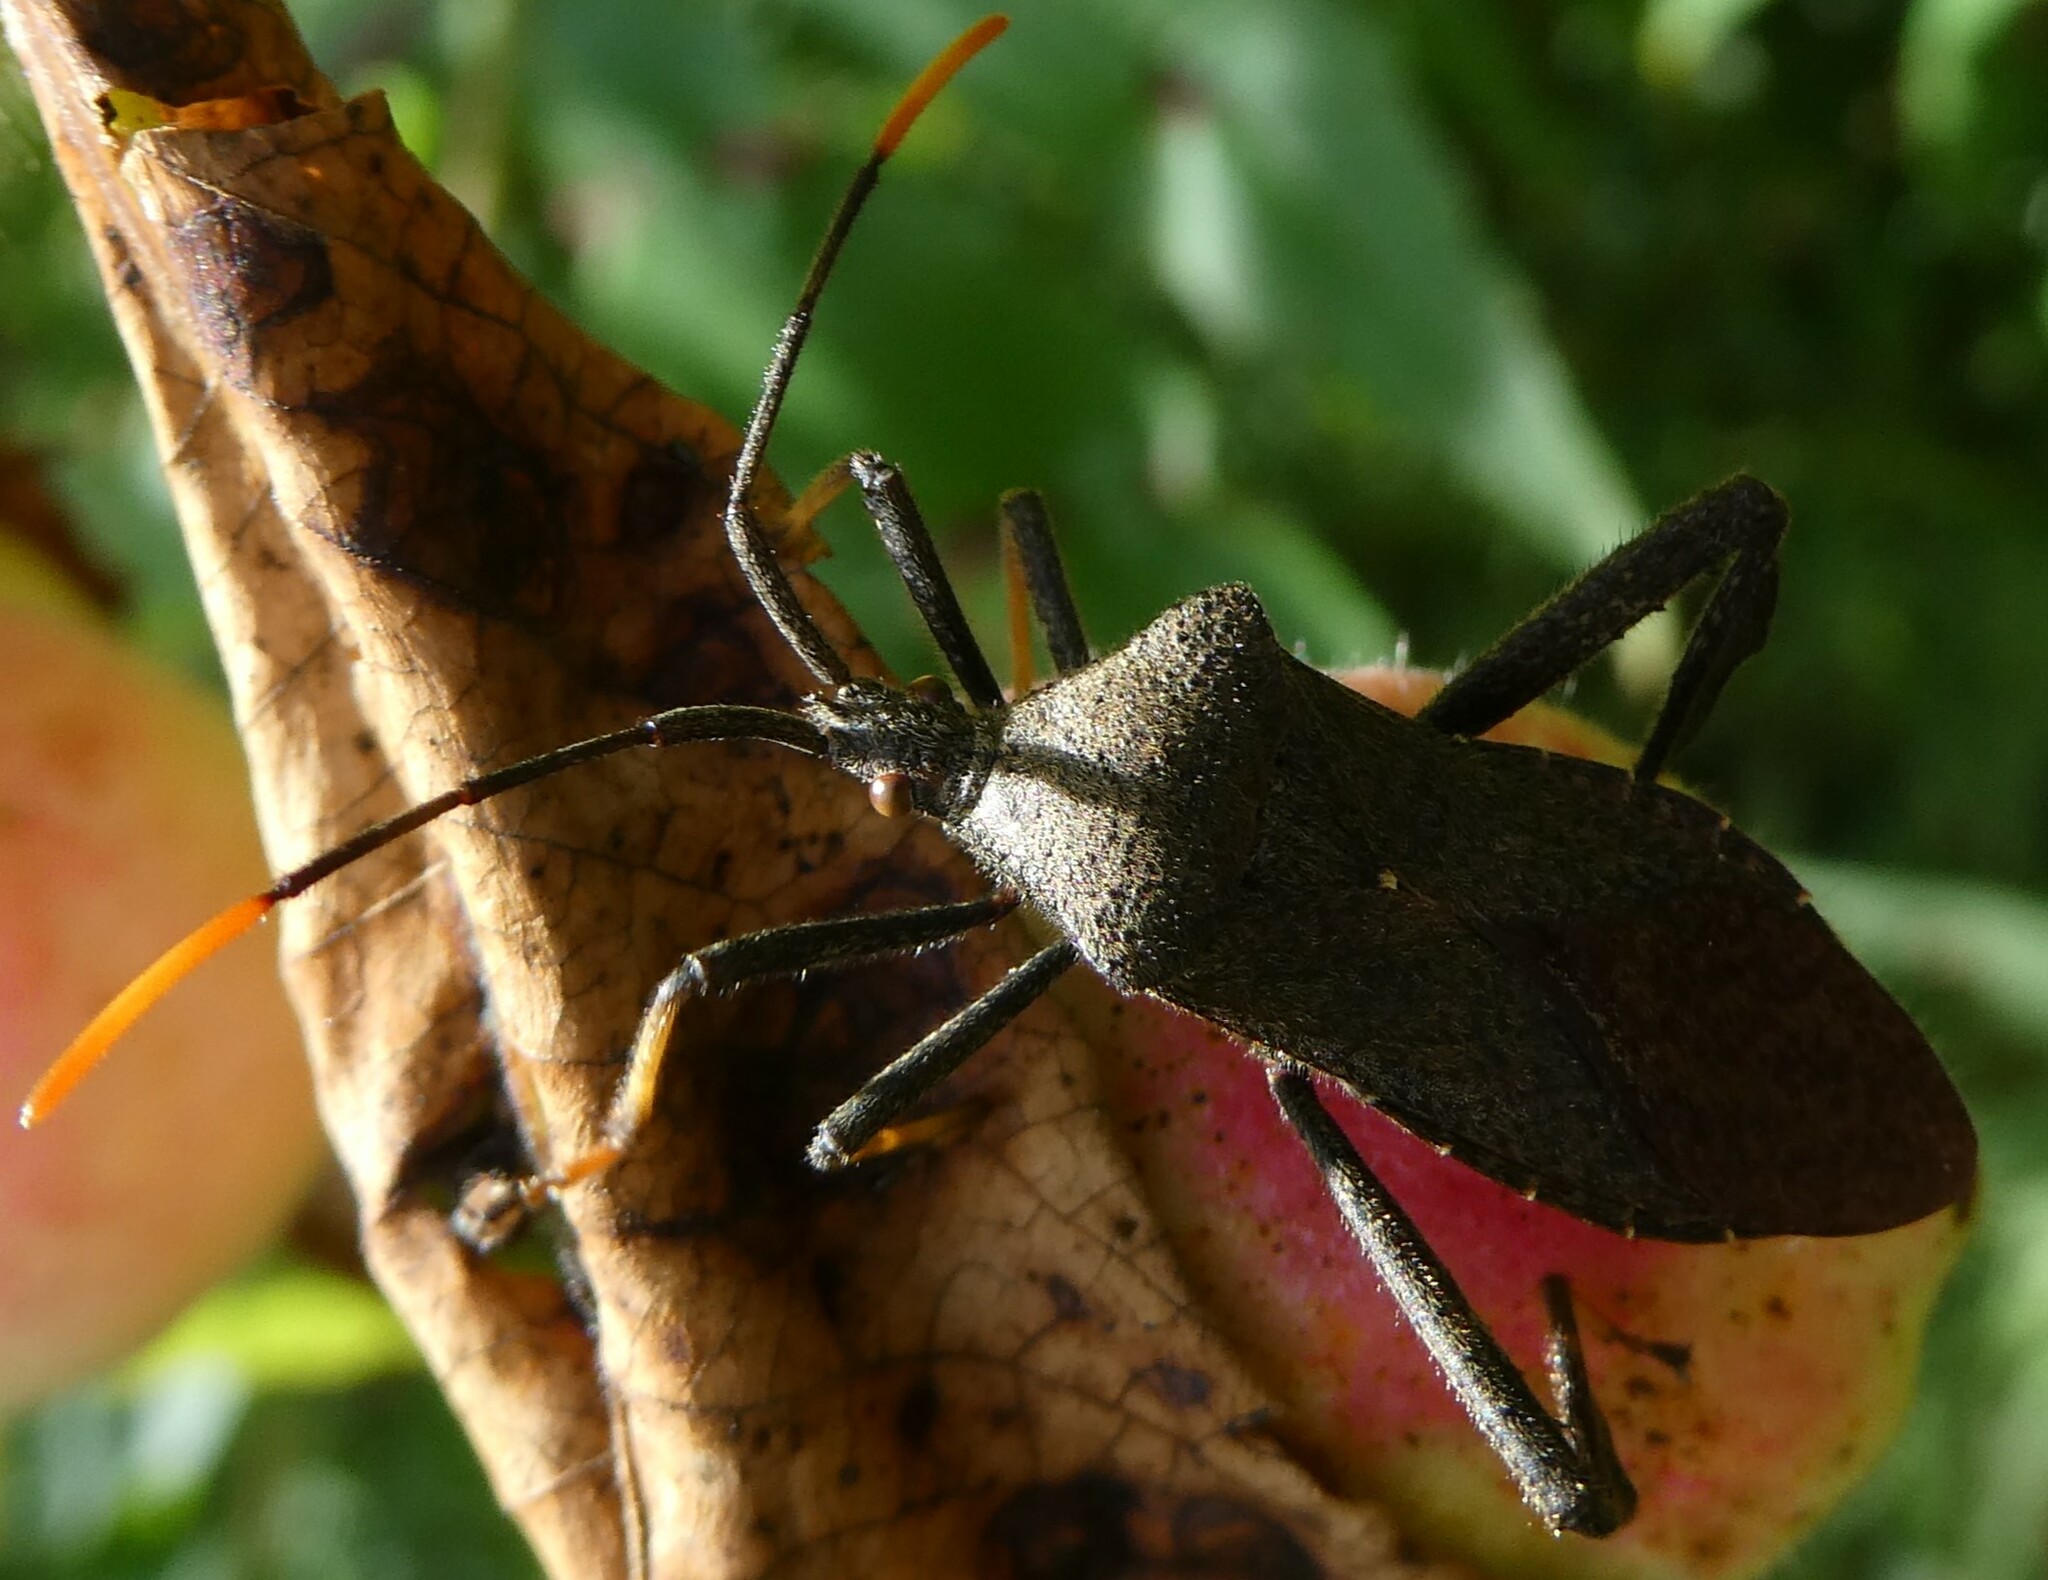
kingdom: Animalia
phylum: Arthropoda
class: Insecta
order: Hemiptera
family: Coreidae
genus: Acanthocephala
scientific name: Acanthocephala terminalis
